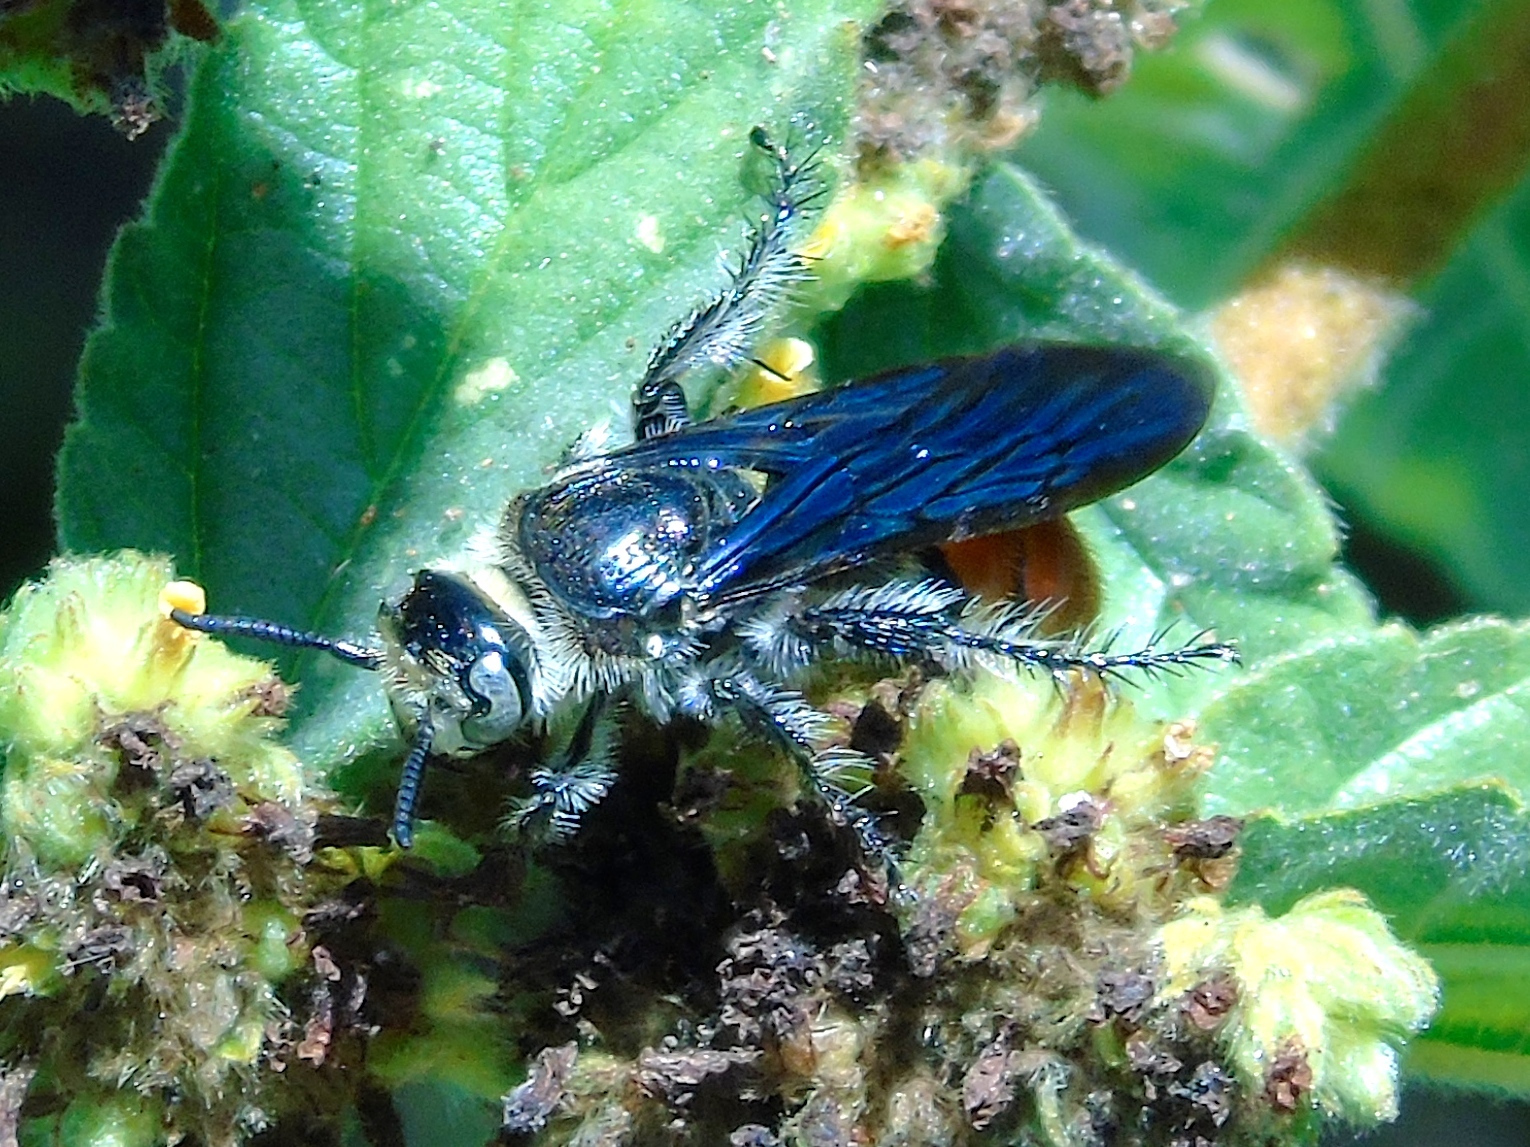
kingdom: Animalia
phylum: Arthropoda
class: Insecta
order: Hymenoptera
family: Scoliidae
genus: Dielis
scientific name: Dielis tolteca
